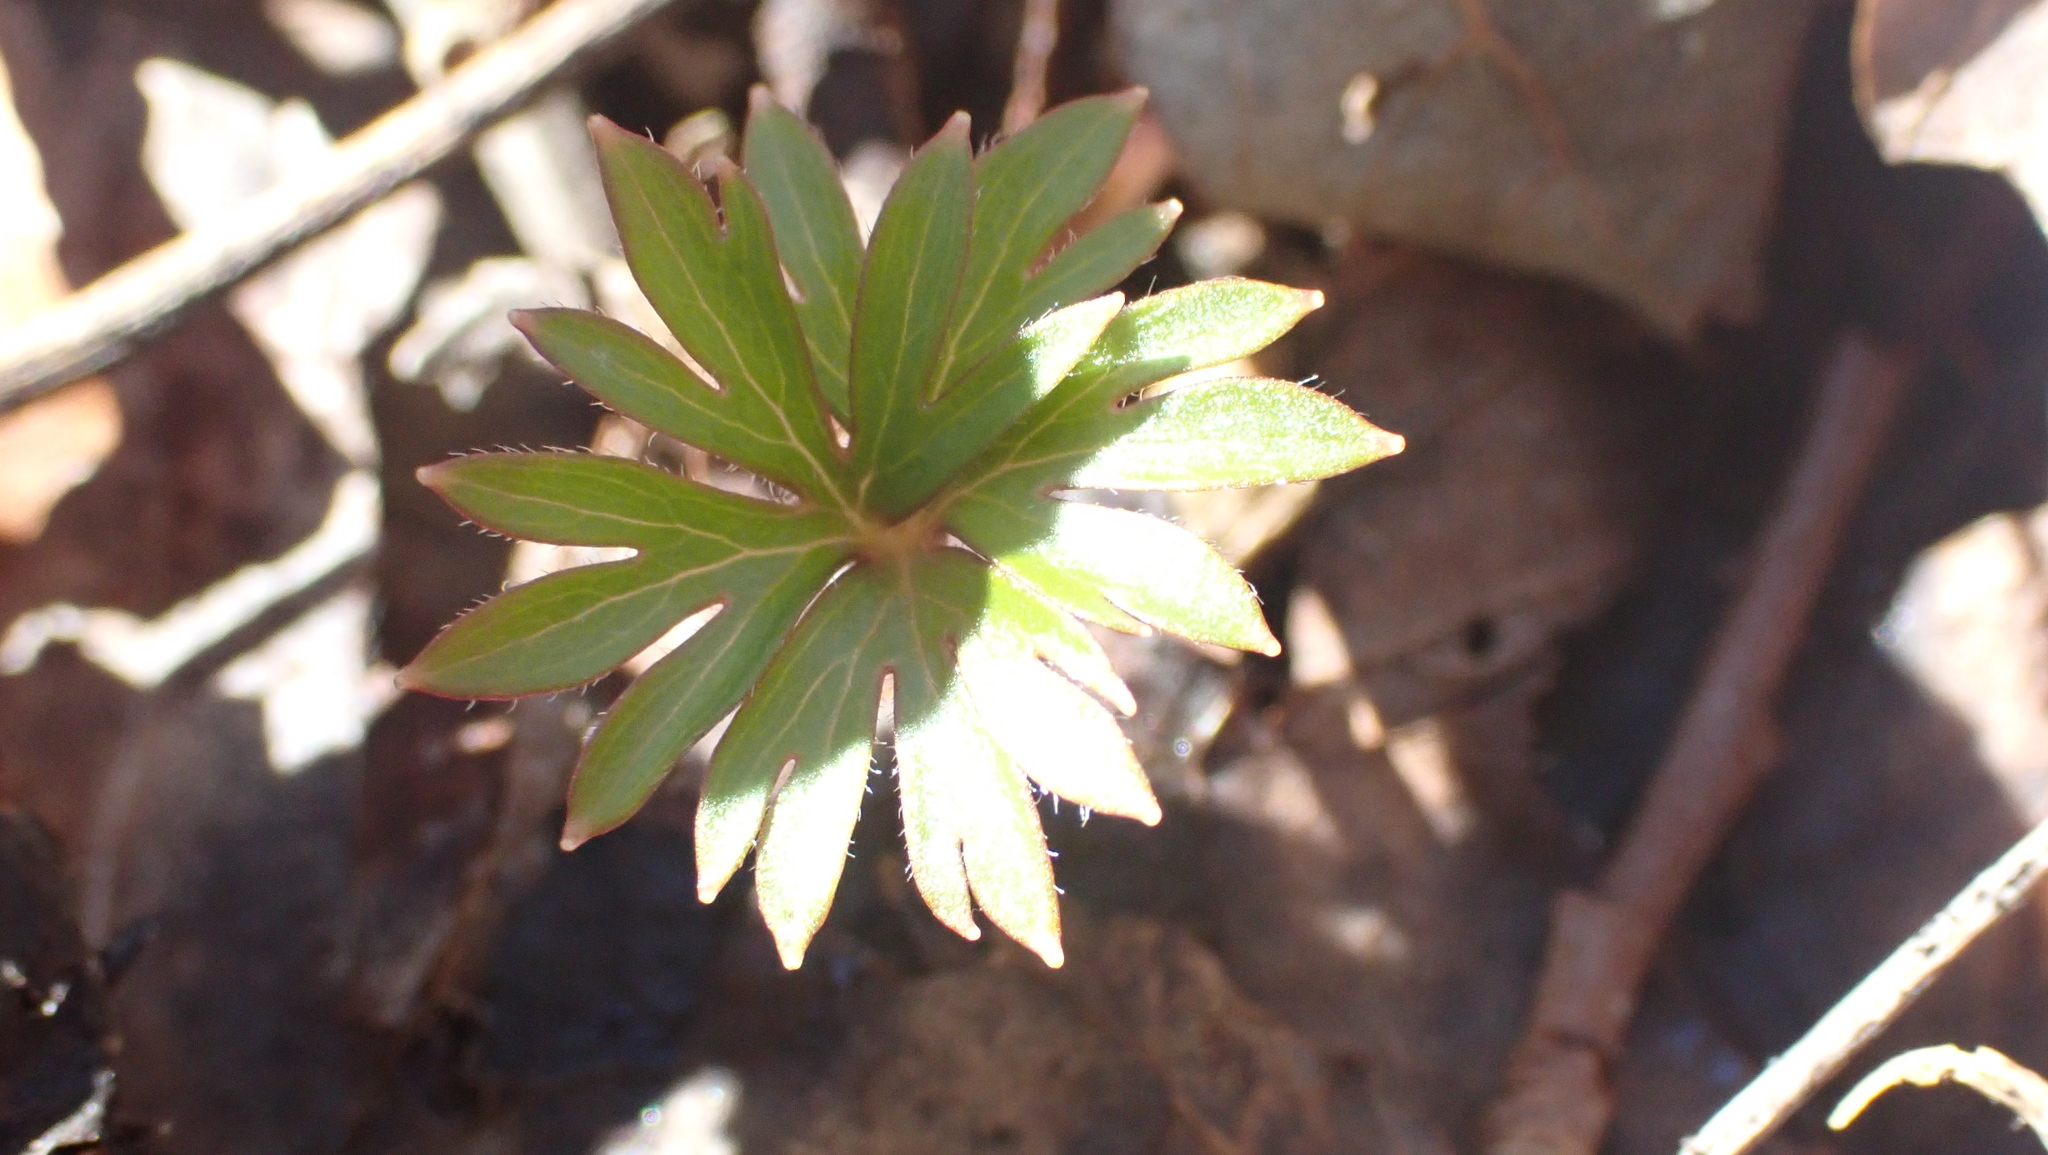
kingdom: Plantae
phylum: Tracheophyta
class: Magnoliopsida
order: Ranunculales
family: Ranunculaceae
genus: Delphinium
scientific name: Delphinium tricorne
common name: Dwarf larkspur
